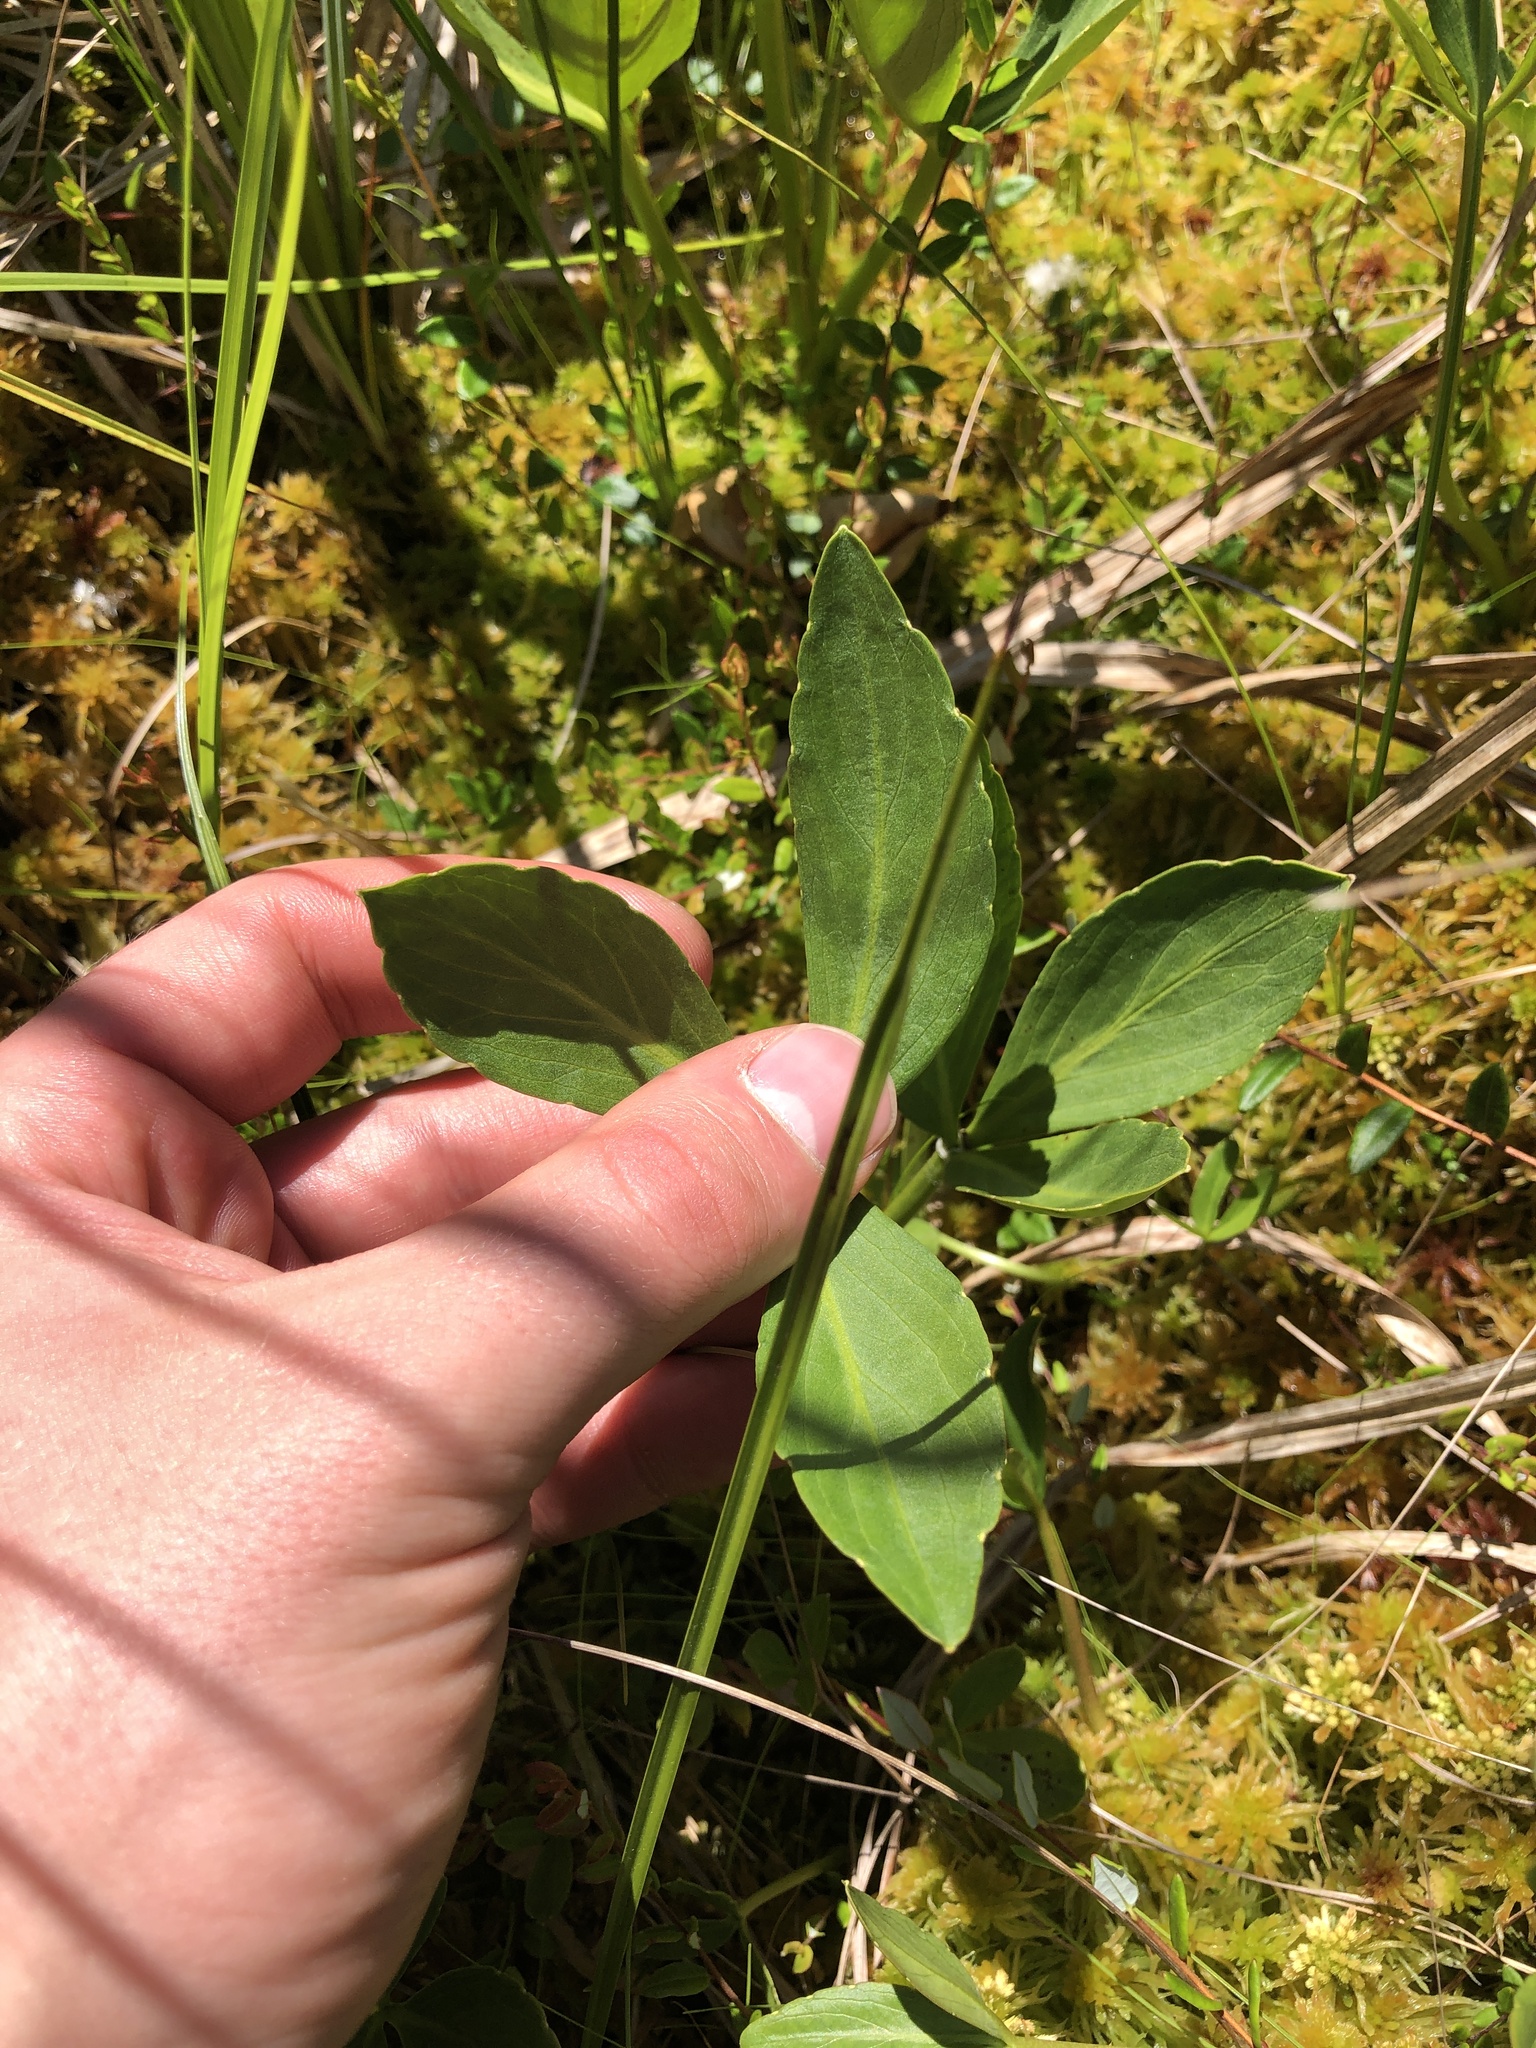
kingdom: Plantae
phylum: Tracheophyta
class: Magnoliopsida
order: Asterales
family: Menyanthaceae
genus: Menyanthes
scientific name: Menyanthes trifoliata
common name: Bogbean
